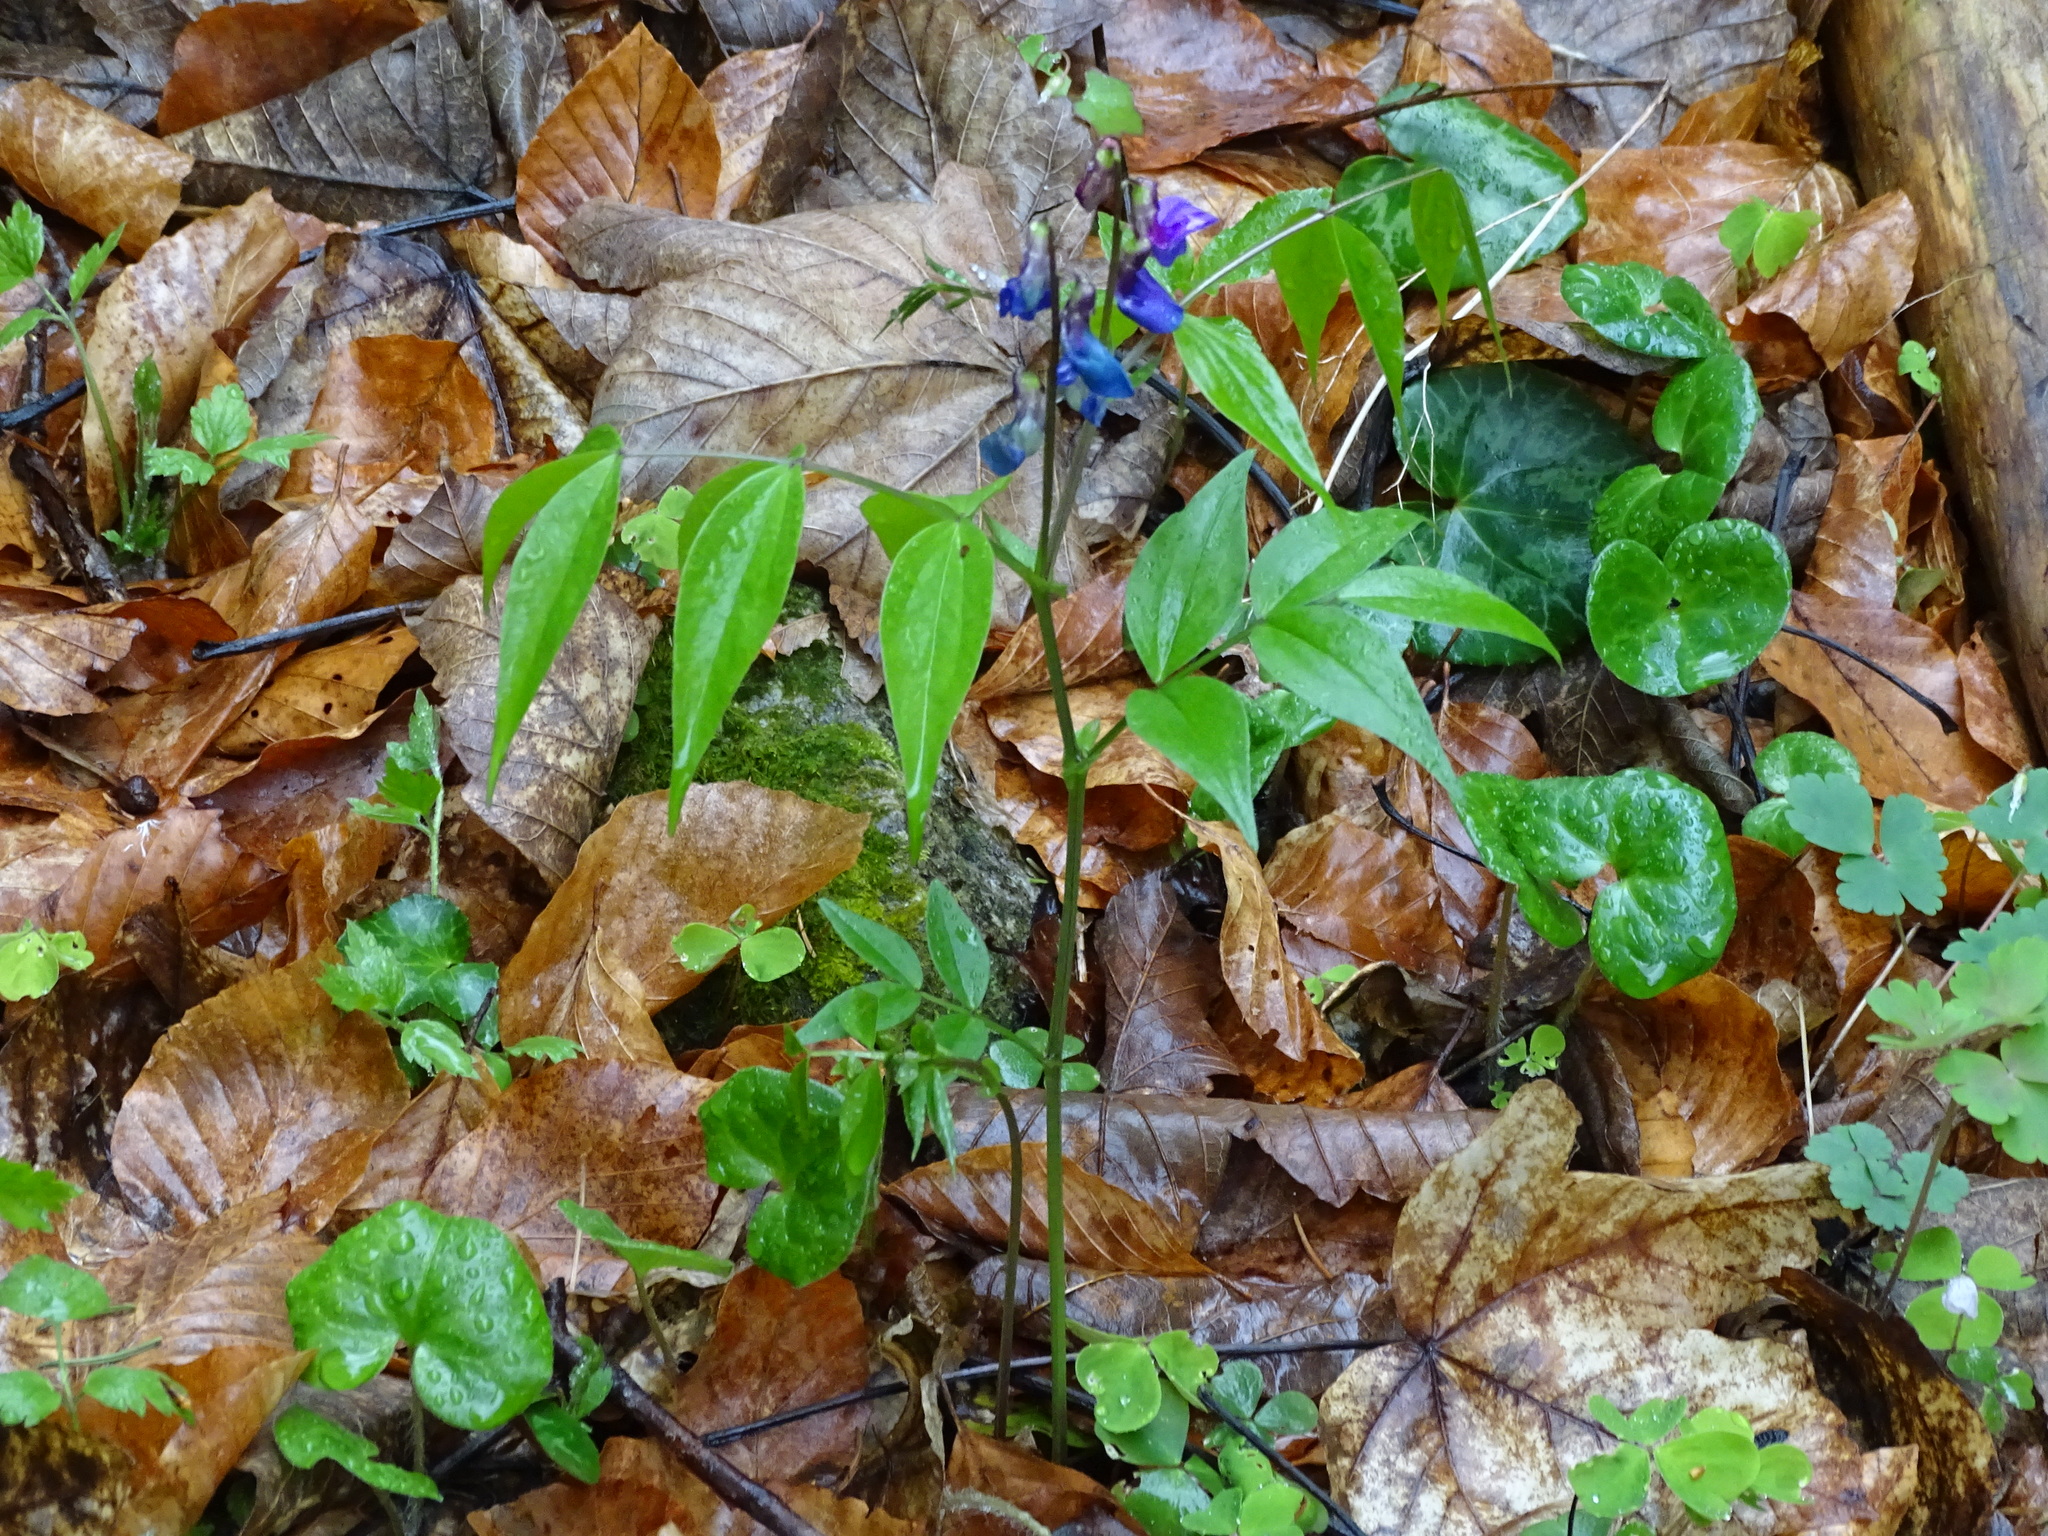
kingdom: Plantae
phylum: Tracheophyta
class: Magnoliopsida
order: Fabales
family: Fabaceae
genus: Lathyrus
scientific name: Lathyrus vernus
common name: Spring pea
